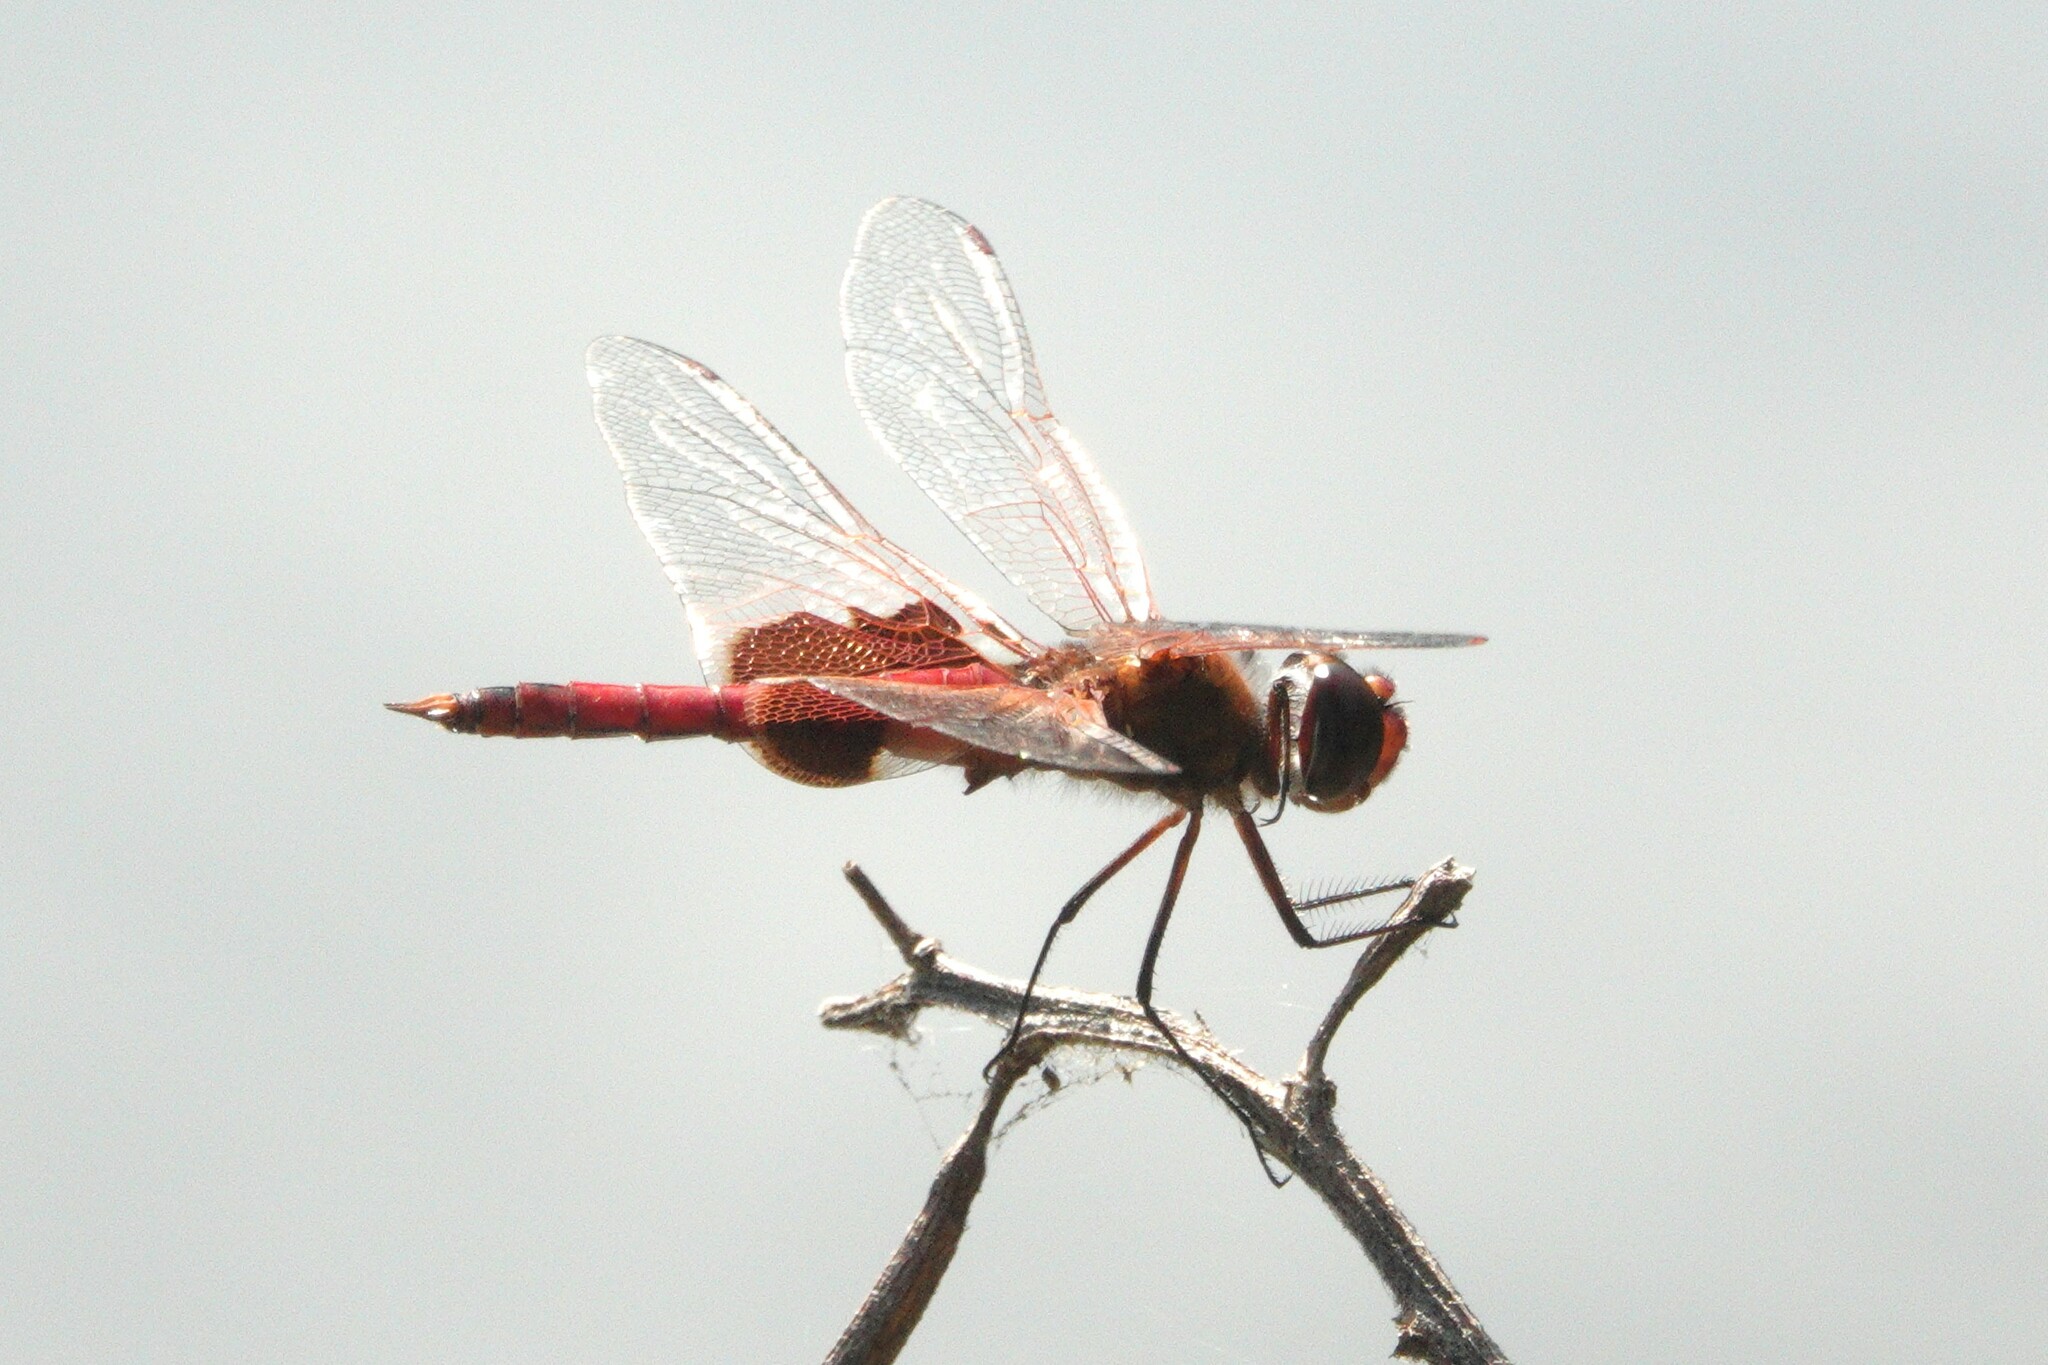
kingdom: Animalia
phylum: Arthropoda
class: Insecta
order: Odonata
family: Libellulidae
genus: Tramea
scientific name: Tramea onusta
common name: Red saddlebags
